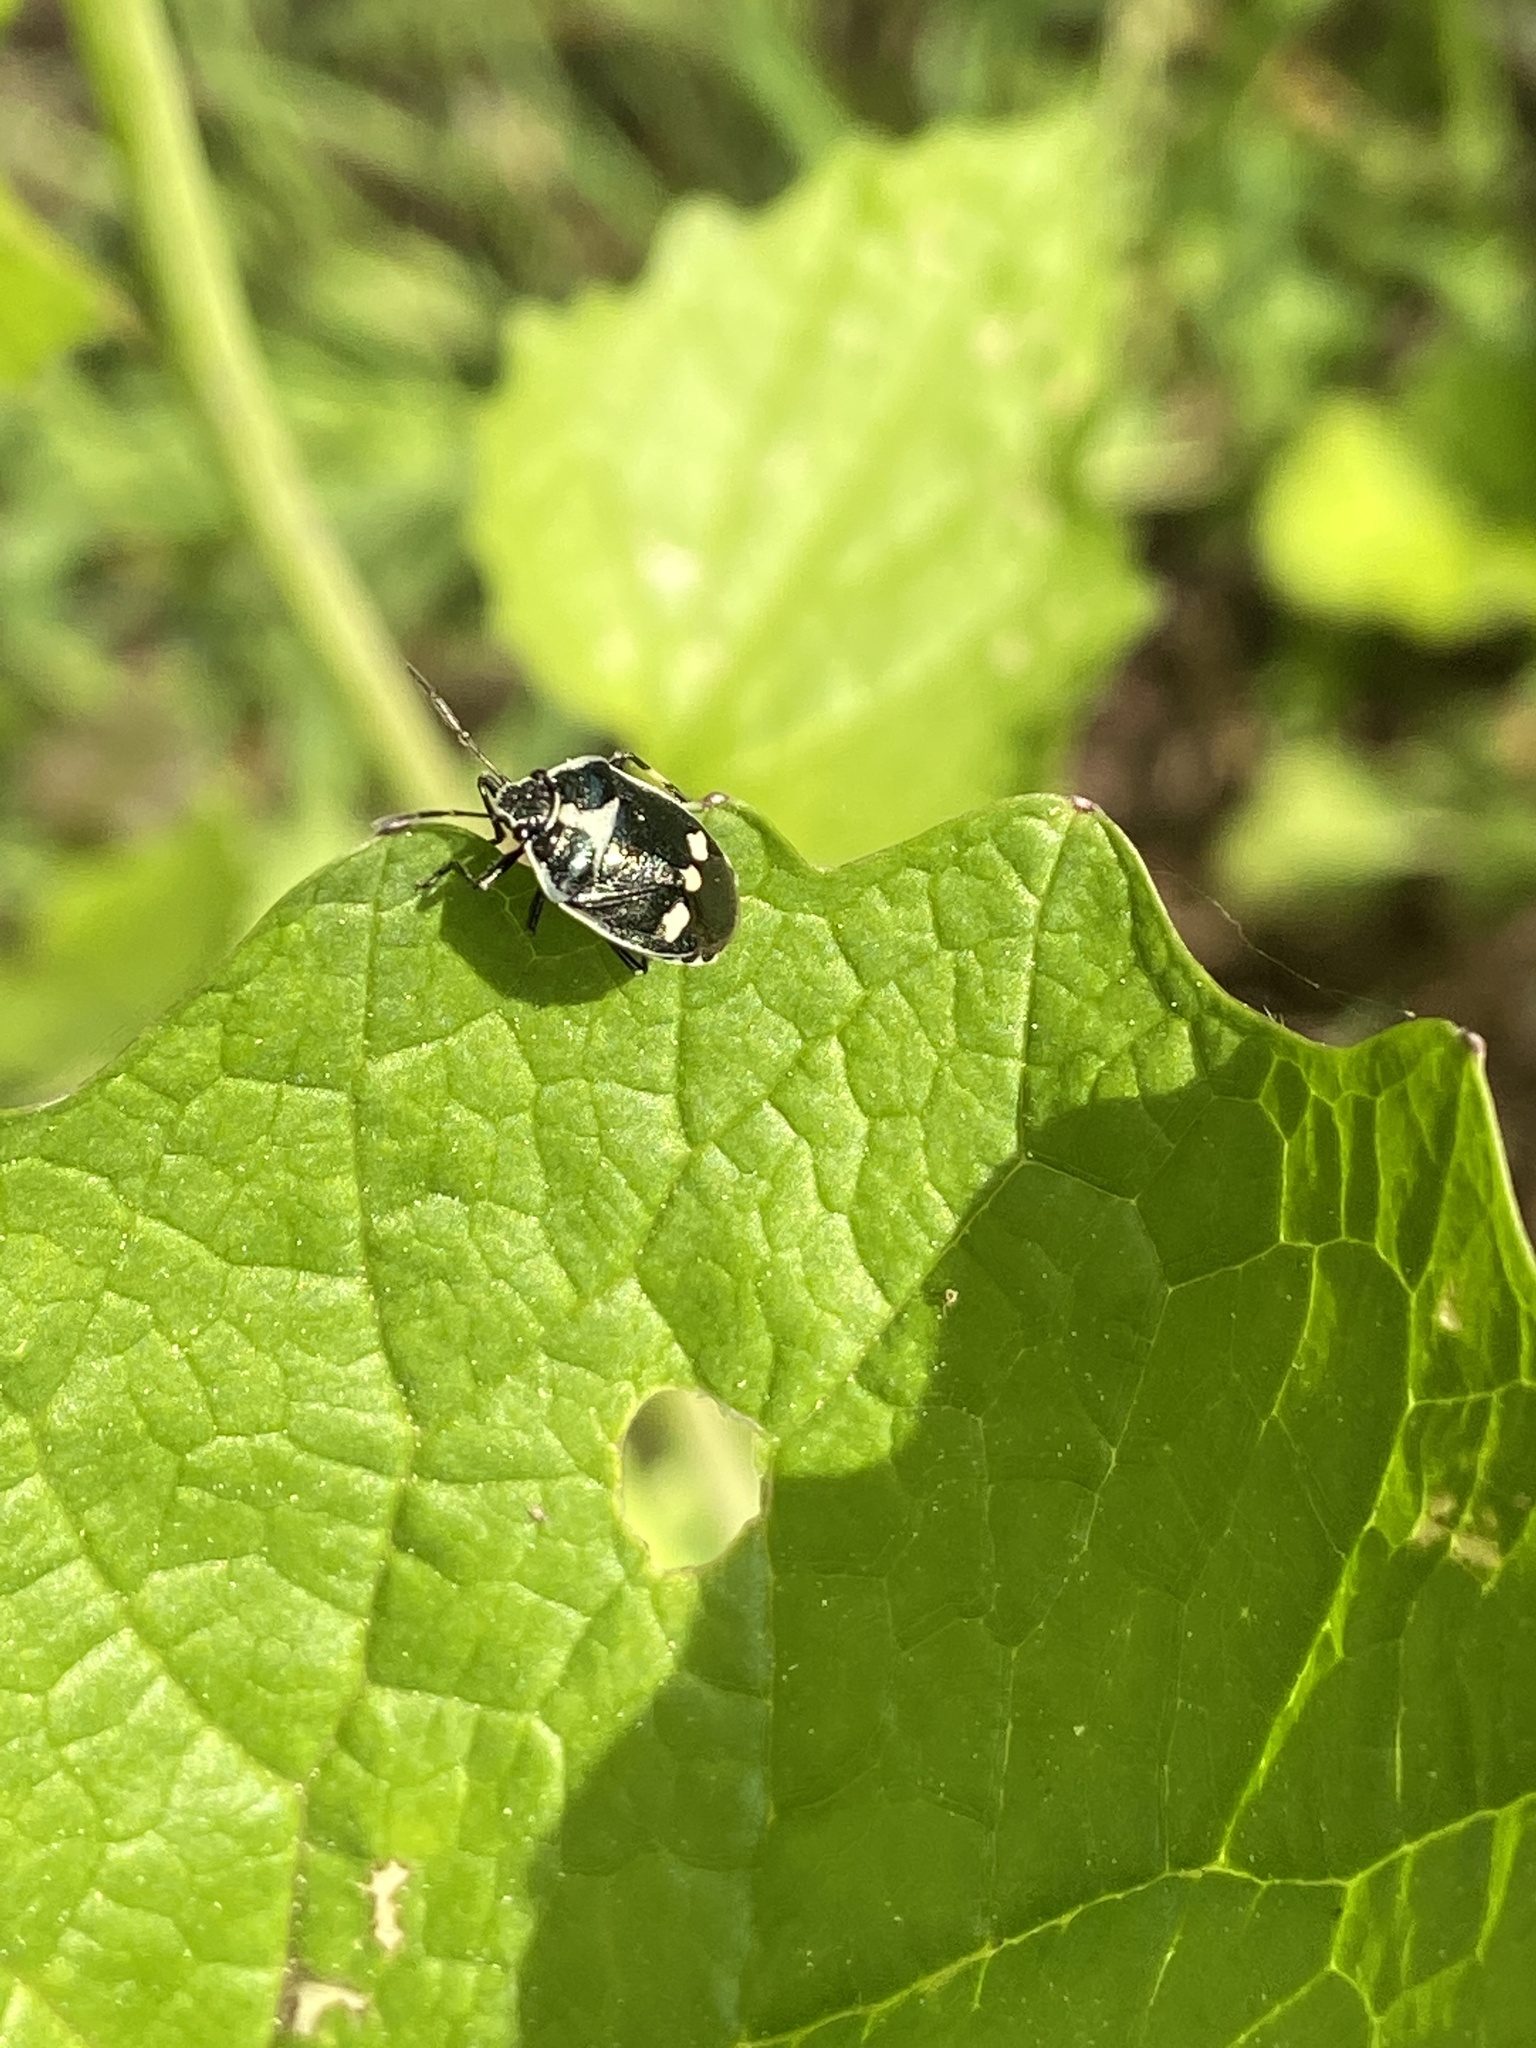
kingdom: Animalia
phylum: Arthropoda
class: Insecta
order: Hemiptera
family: Pentatomidae
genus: Eurydema
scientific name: Eurydema oleracea
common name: Cabbage bug
